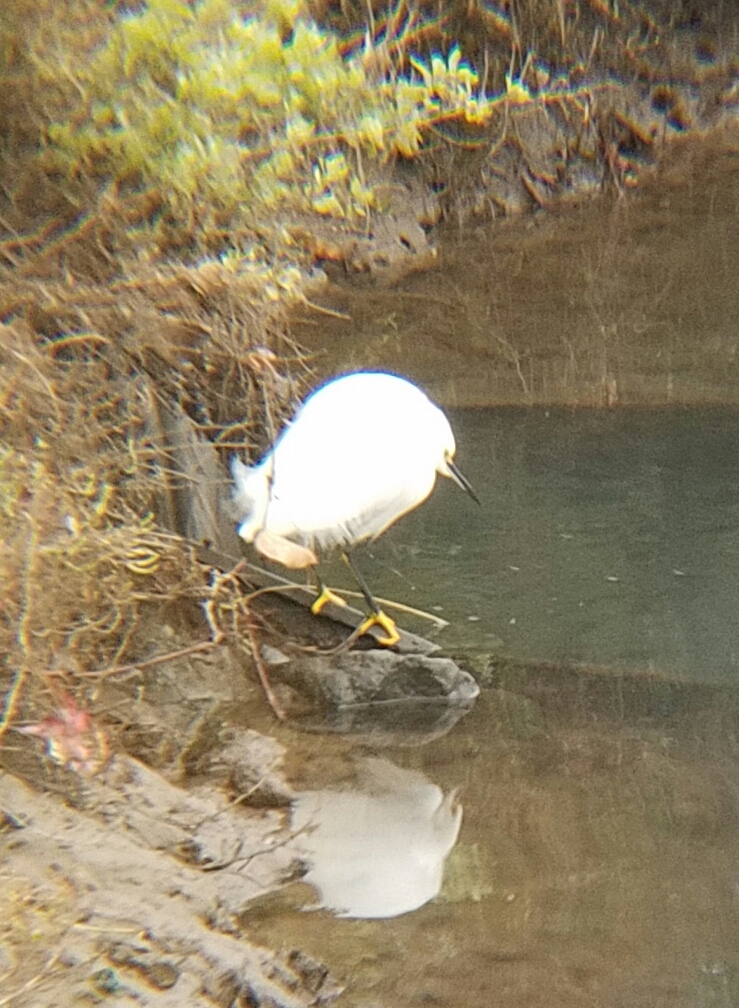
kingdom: Animalia
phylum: Chordata
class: Aves
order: Pelecaniformes
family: Ardeidae
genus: Egretta
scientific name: Egretta thula
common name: Snowy egret
